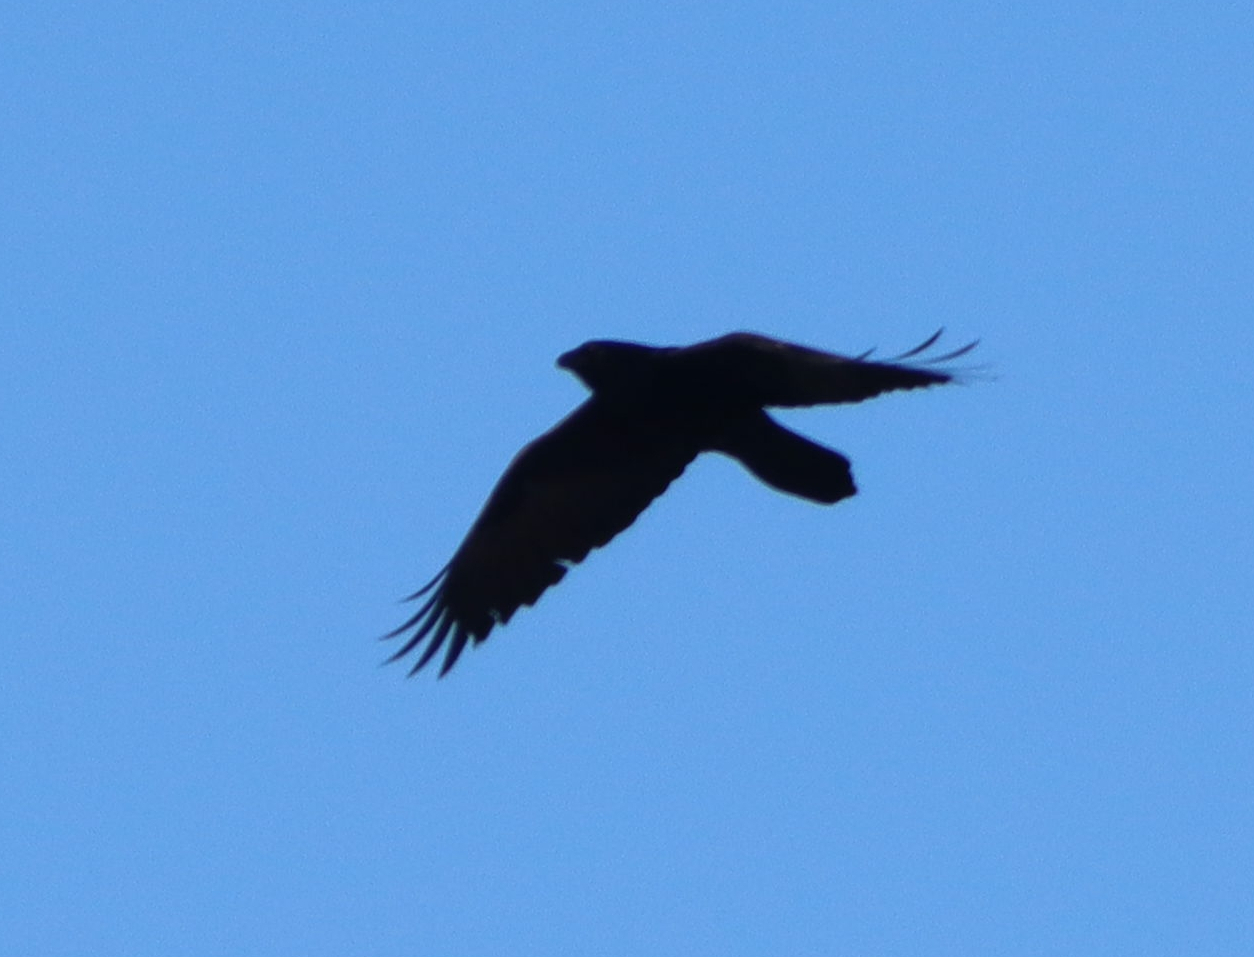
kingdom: Animalia
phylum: Chordata
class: Aves
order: Passeriformes
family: Corvidae
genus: Corvus
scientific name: Corvus corax
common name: Common raven
